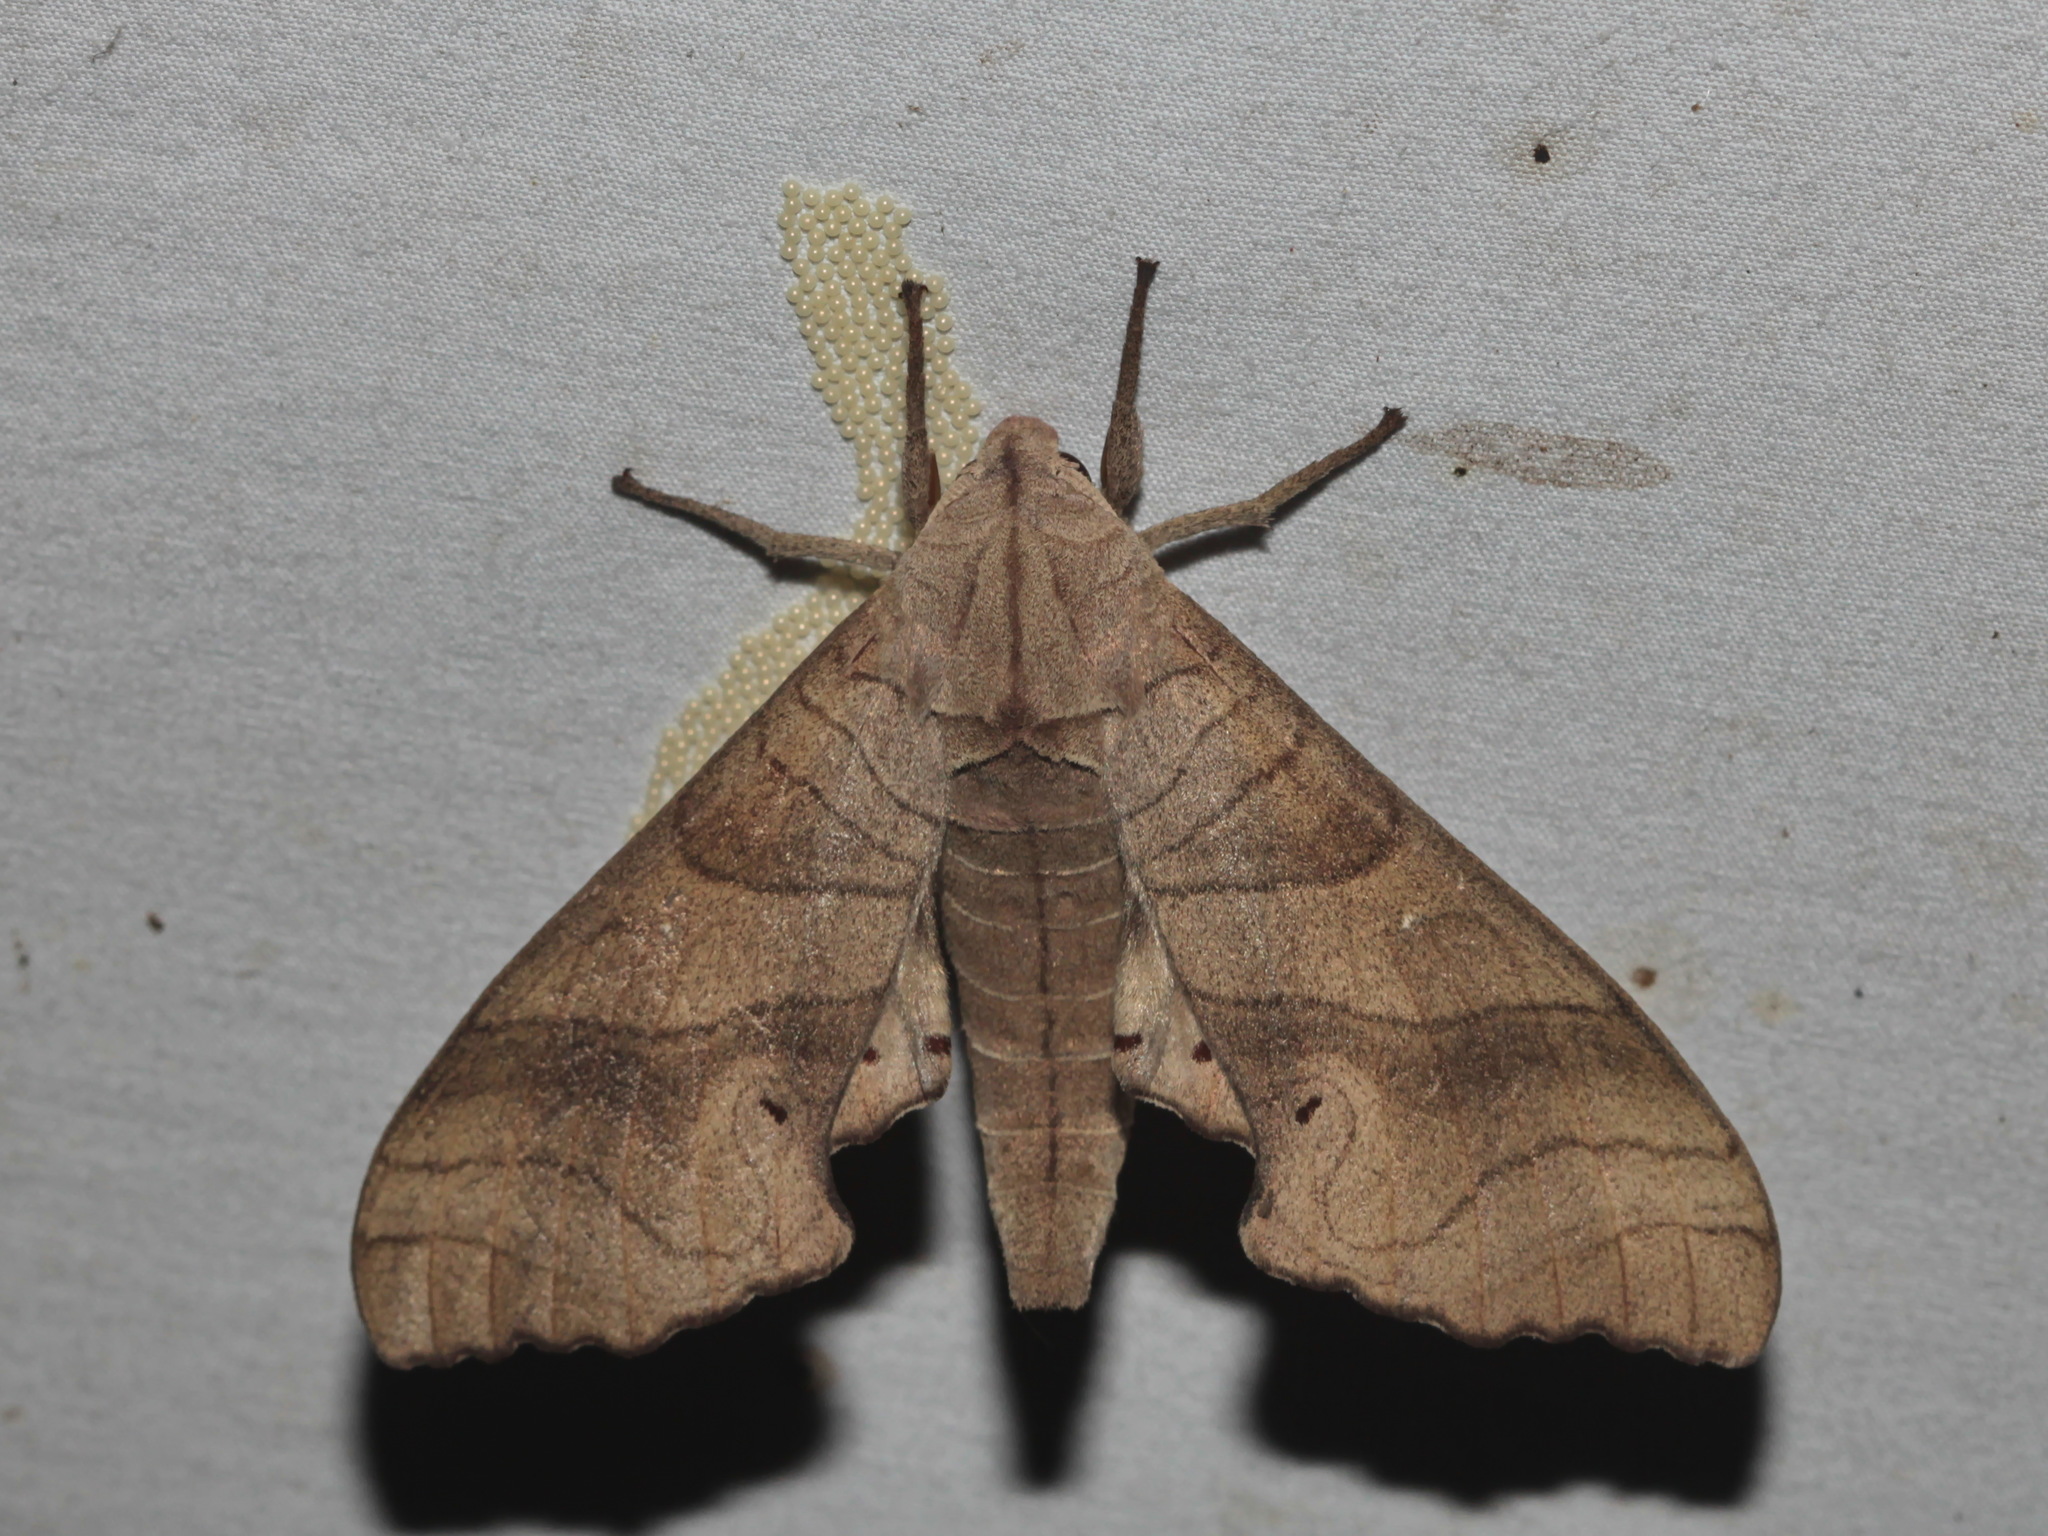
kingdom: Animalia
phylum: Arthropoda
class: Insecta
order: Lepidoptera
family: Sphingidae
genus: Marumba
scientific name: Marumba dyras
